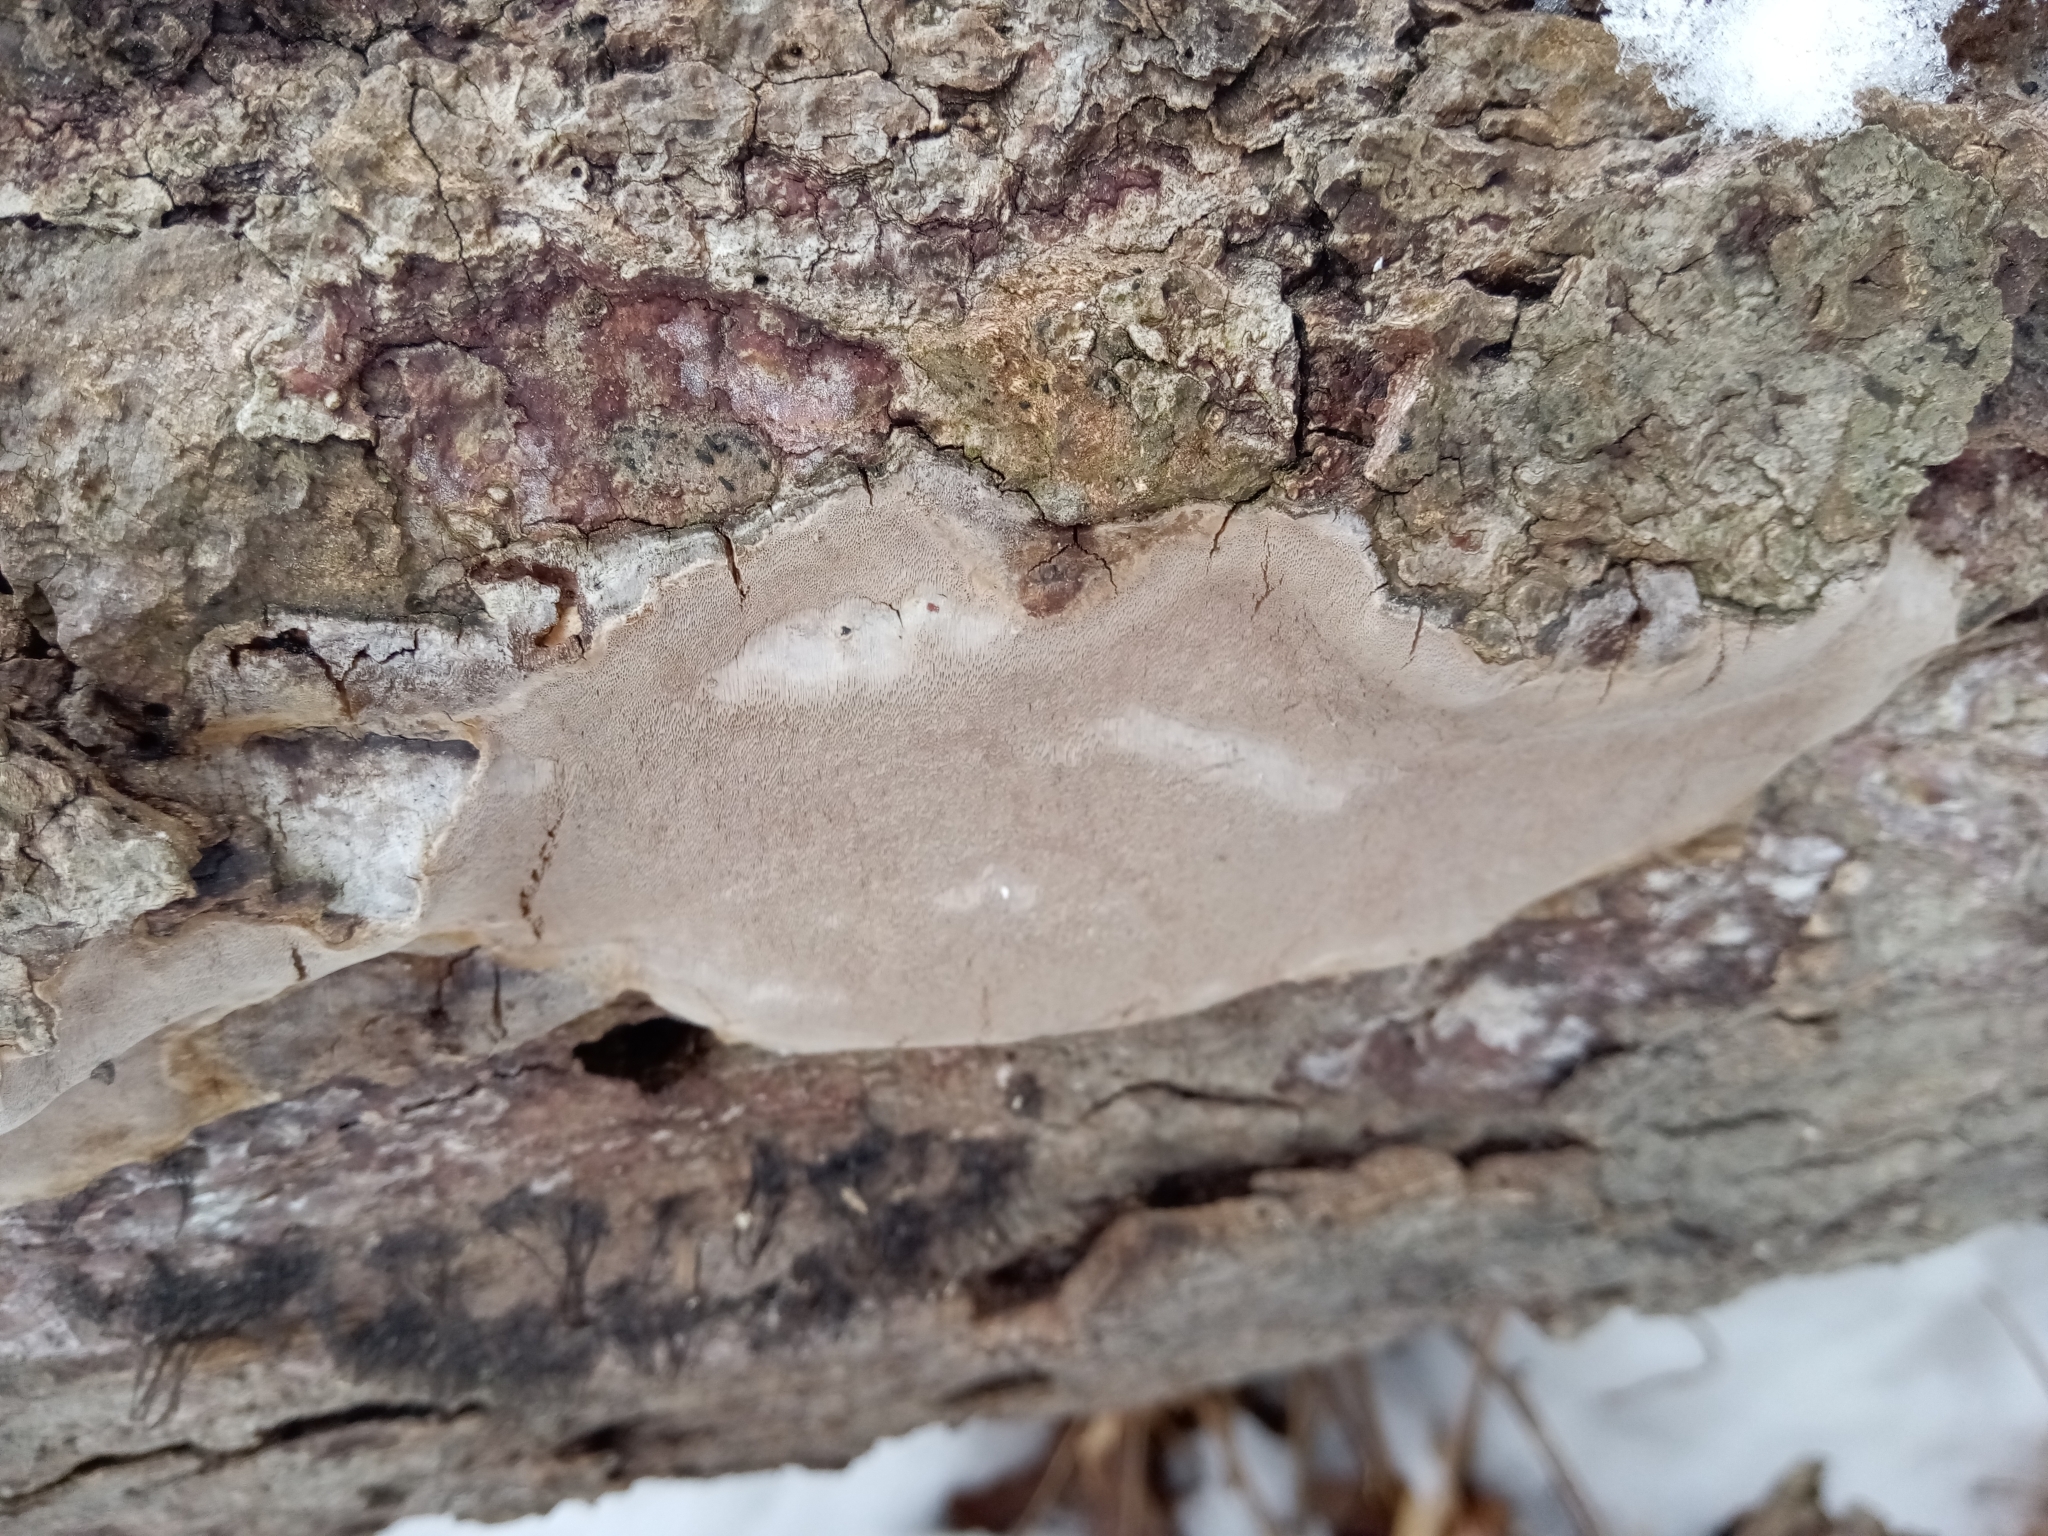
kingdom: Fungi
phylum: Basidiomycota
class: Agaricomycetes
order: Hymenochaetales
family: Hymenochaetaceae
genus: Phellinus
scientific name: Phellinus betulinus
